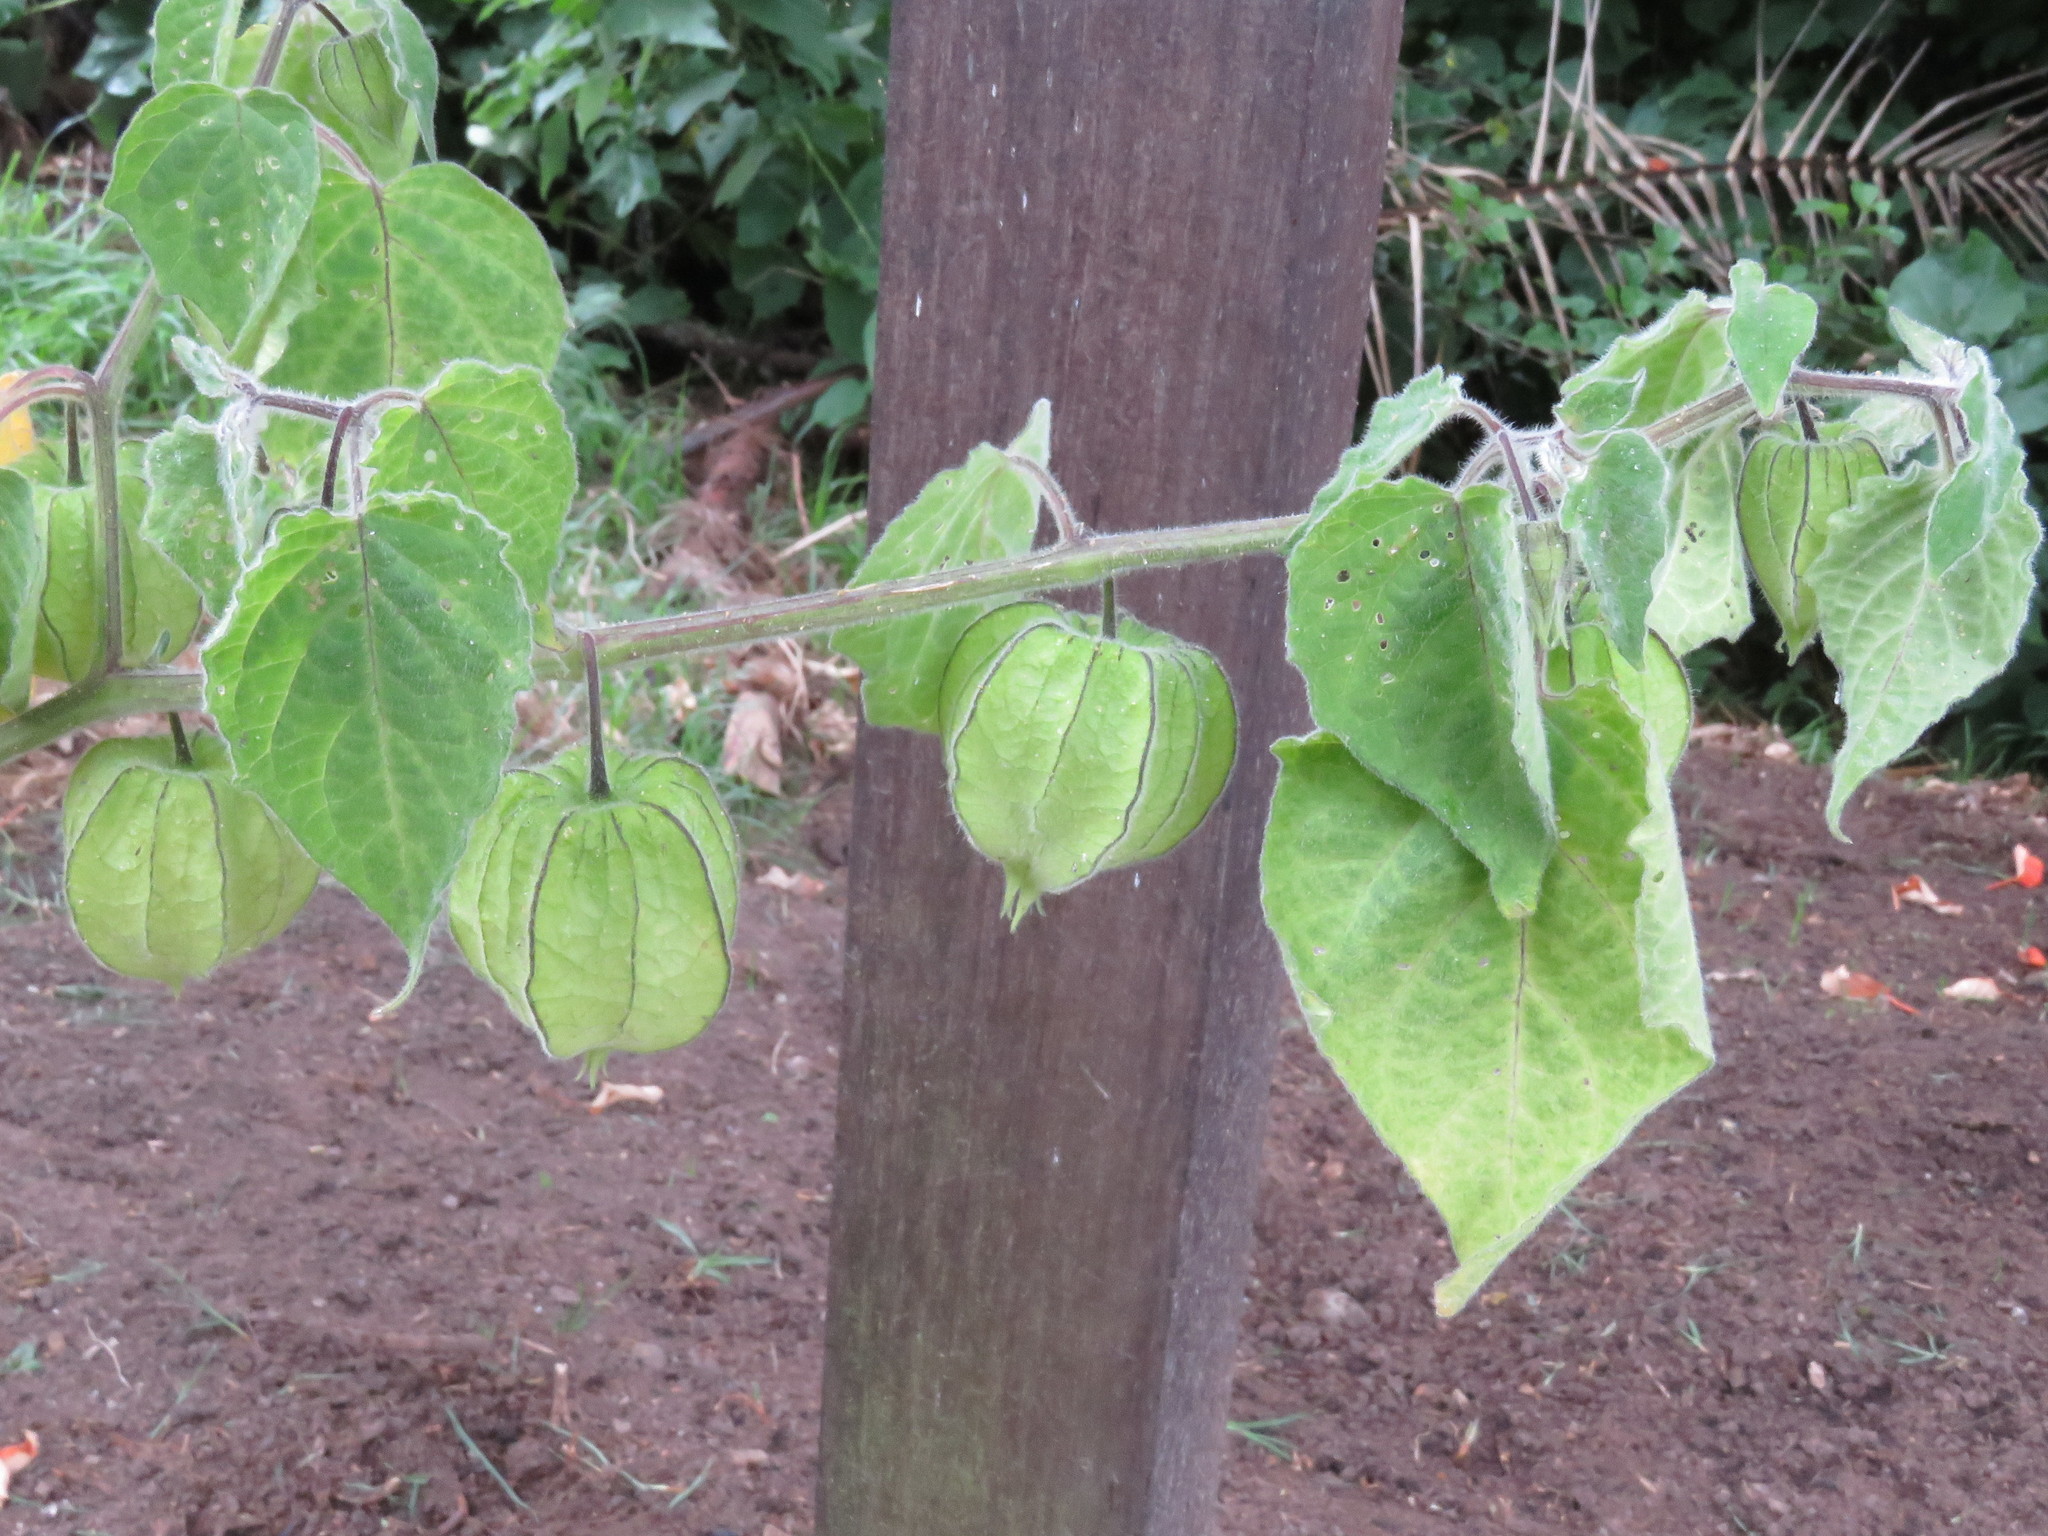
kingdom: Plantae
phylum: Tracheophyta
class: Magnoliopsida
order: Solanales
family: Solanaceae
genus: Physalis
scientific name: Physalis peruviana
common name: Cape-gooseberry
